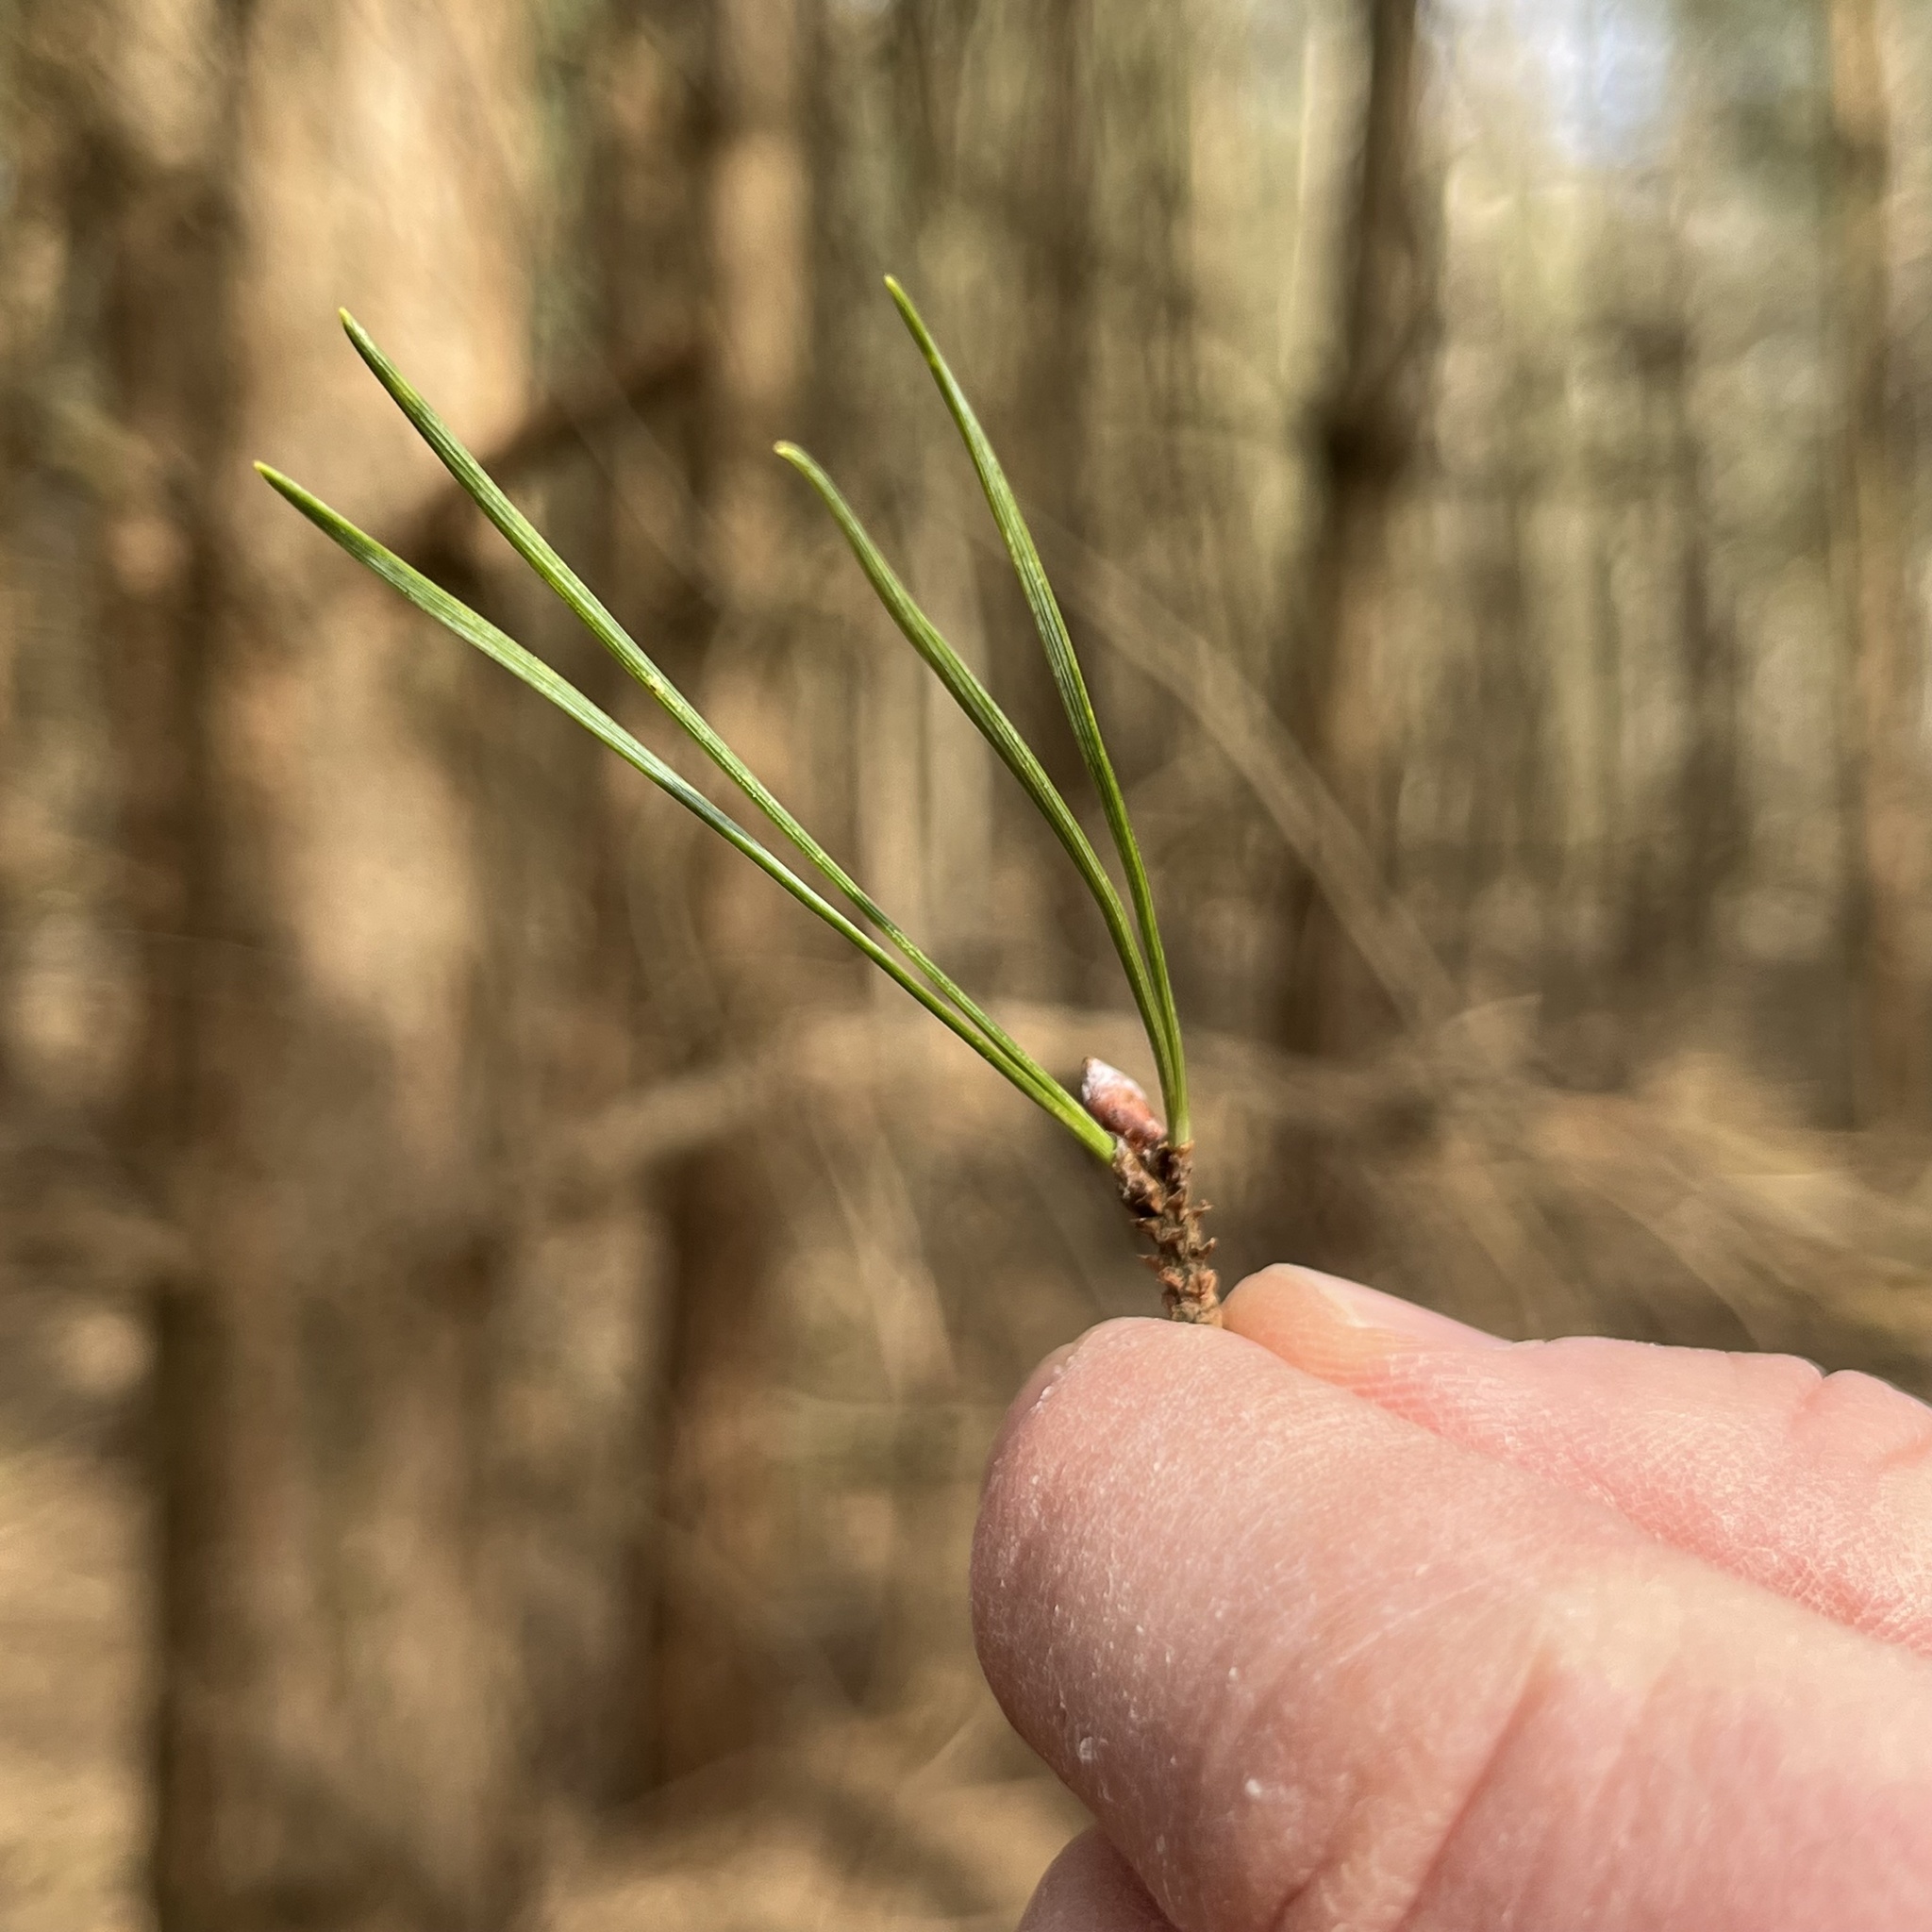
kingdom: Plantae
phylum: Tracheophyta
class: Pinopsida
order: Pinales
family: Pinaceae
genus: Pinus
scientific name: Pinus sylvestris
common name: Scots pine
